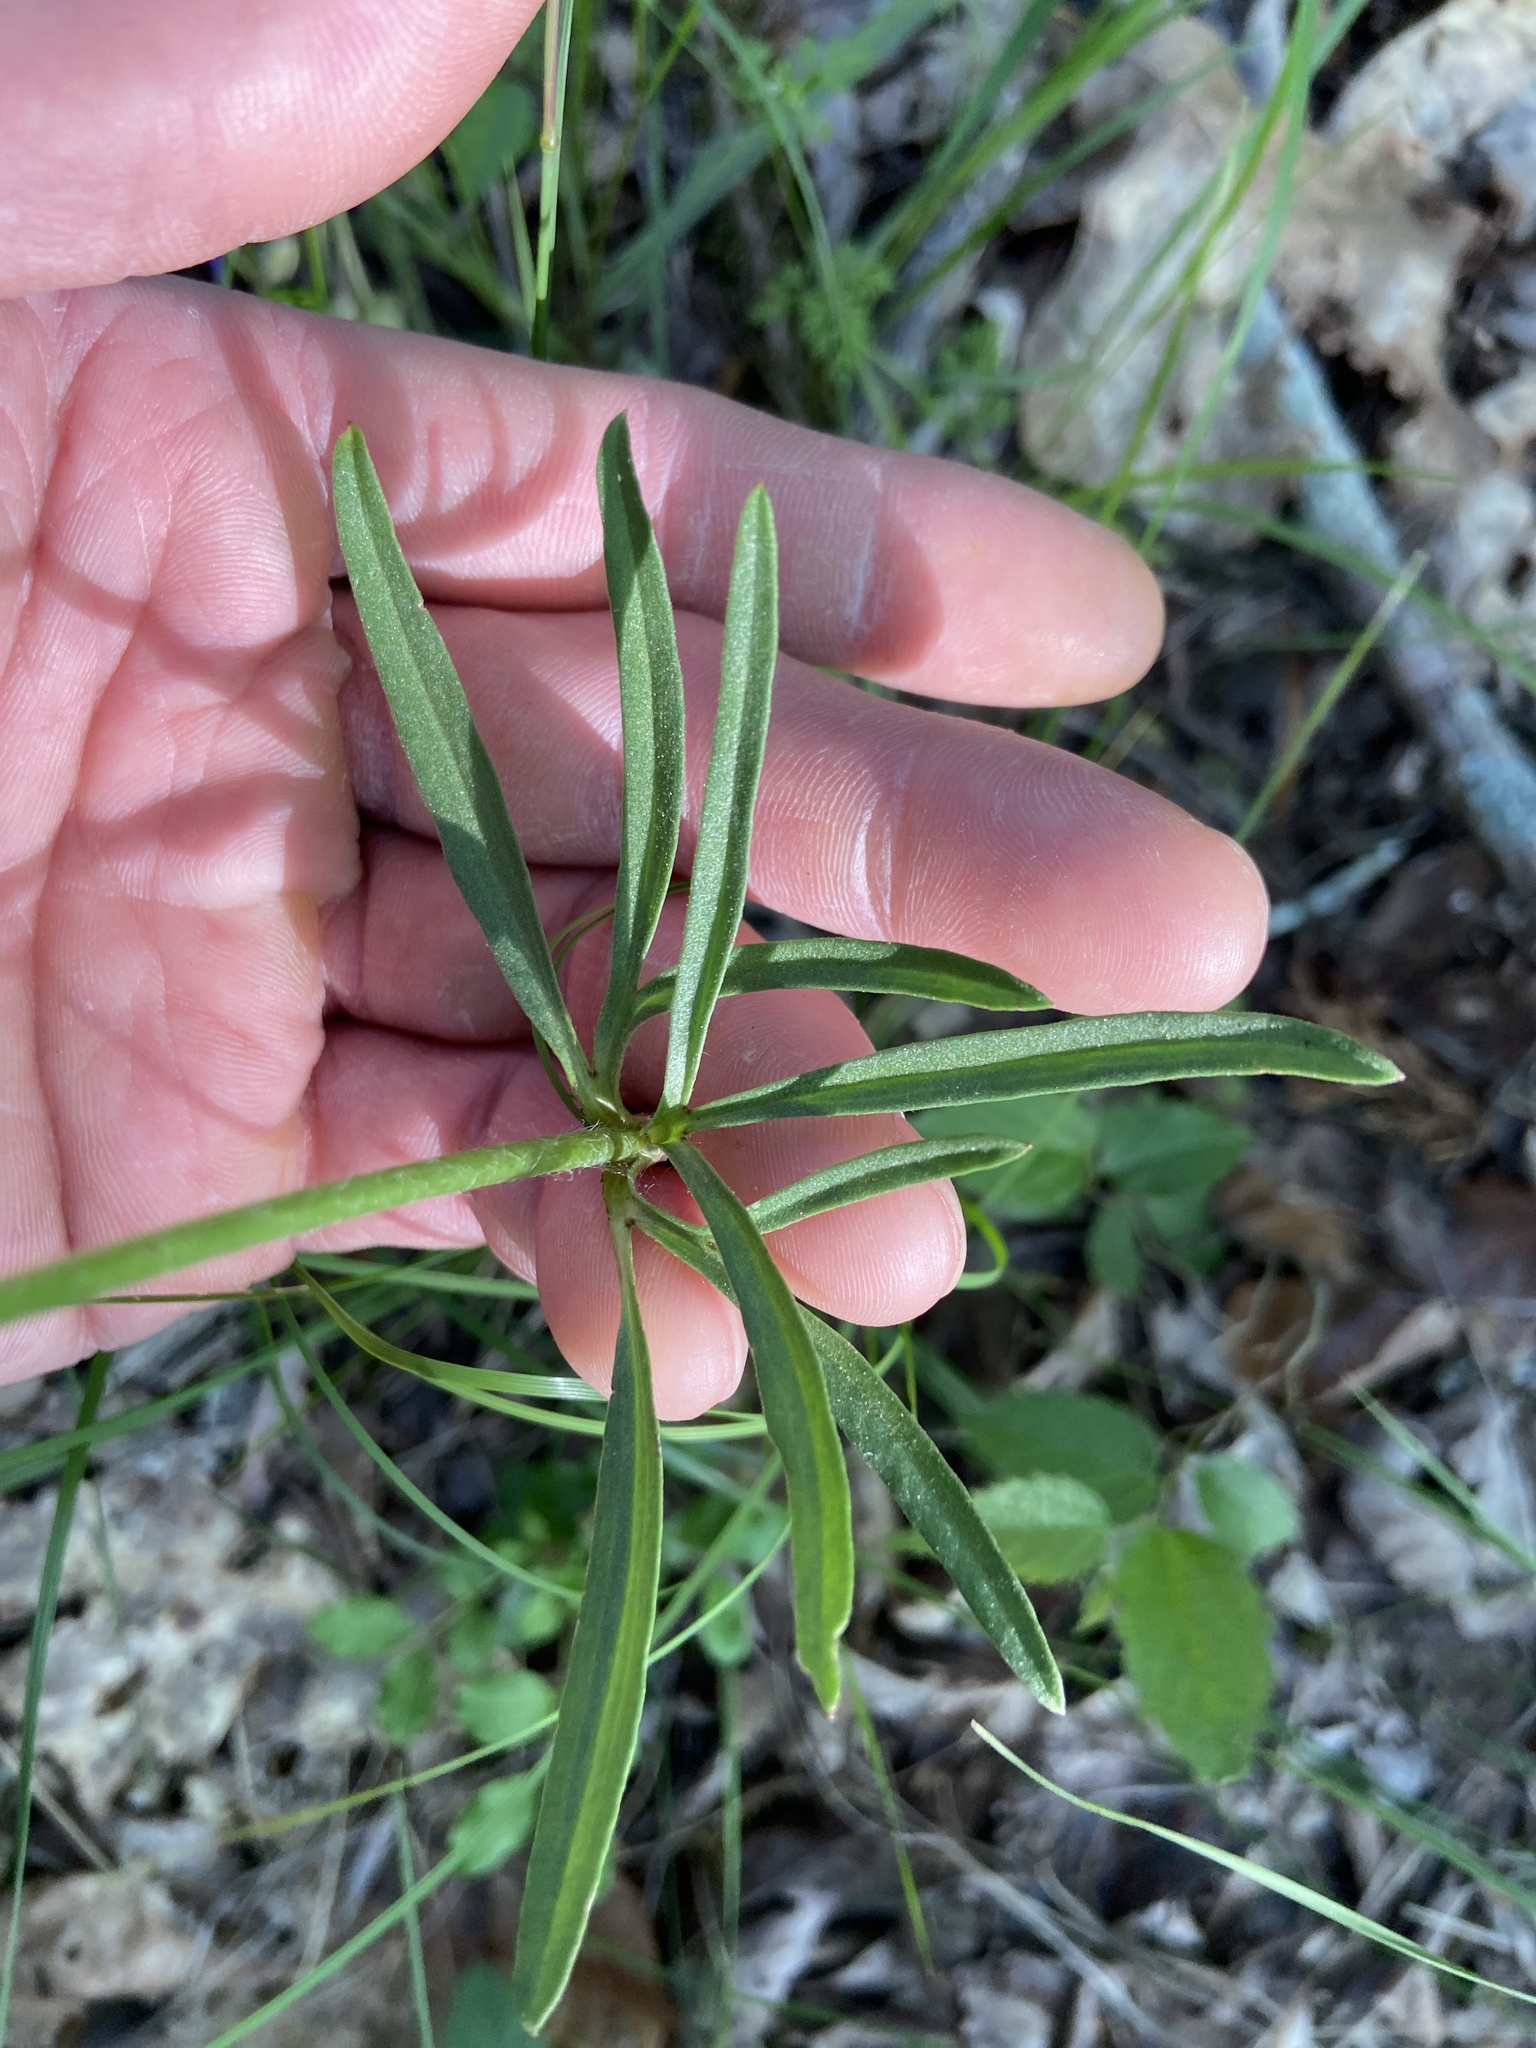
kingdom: Plantae
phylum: Tracheophyta
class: Magnoliopsida
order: Ranunculales
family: Ranunculaceae
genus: Anemone
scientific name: Anemone berlandieri
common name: Ten-petal anemone
